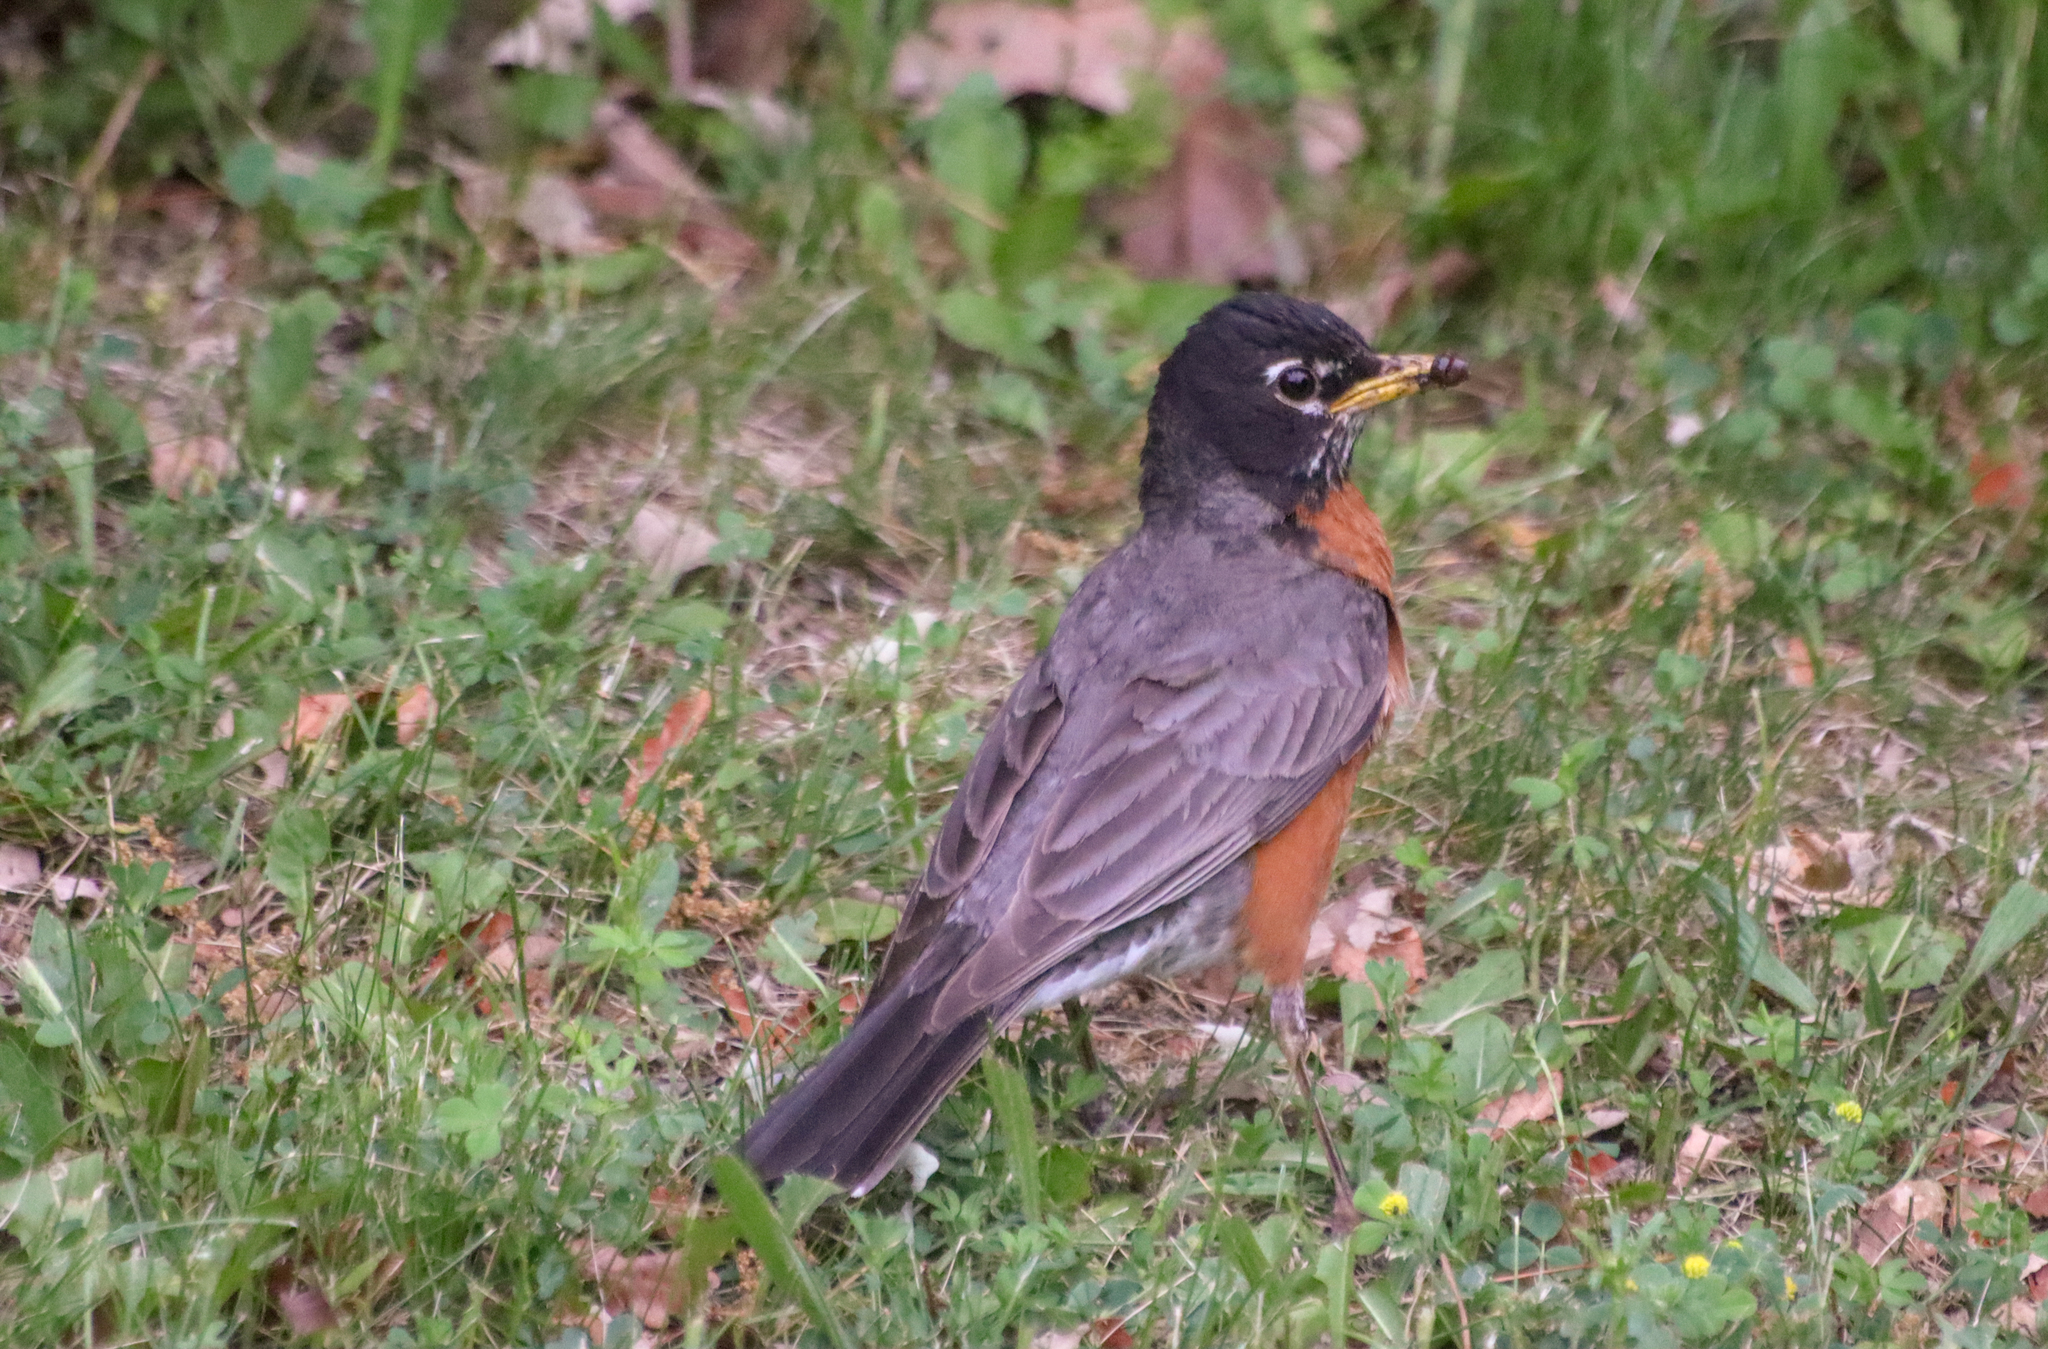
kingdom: Animalia
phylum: Chordata
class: Aves
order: Passeriformes
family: Turdidae
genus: Turdus
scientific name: Turdus migratorius
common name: American robin
